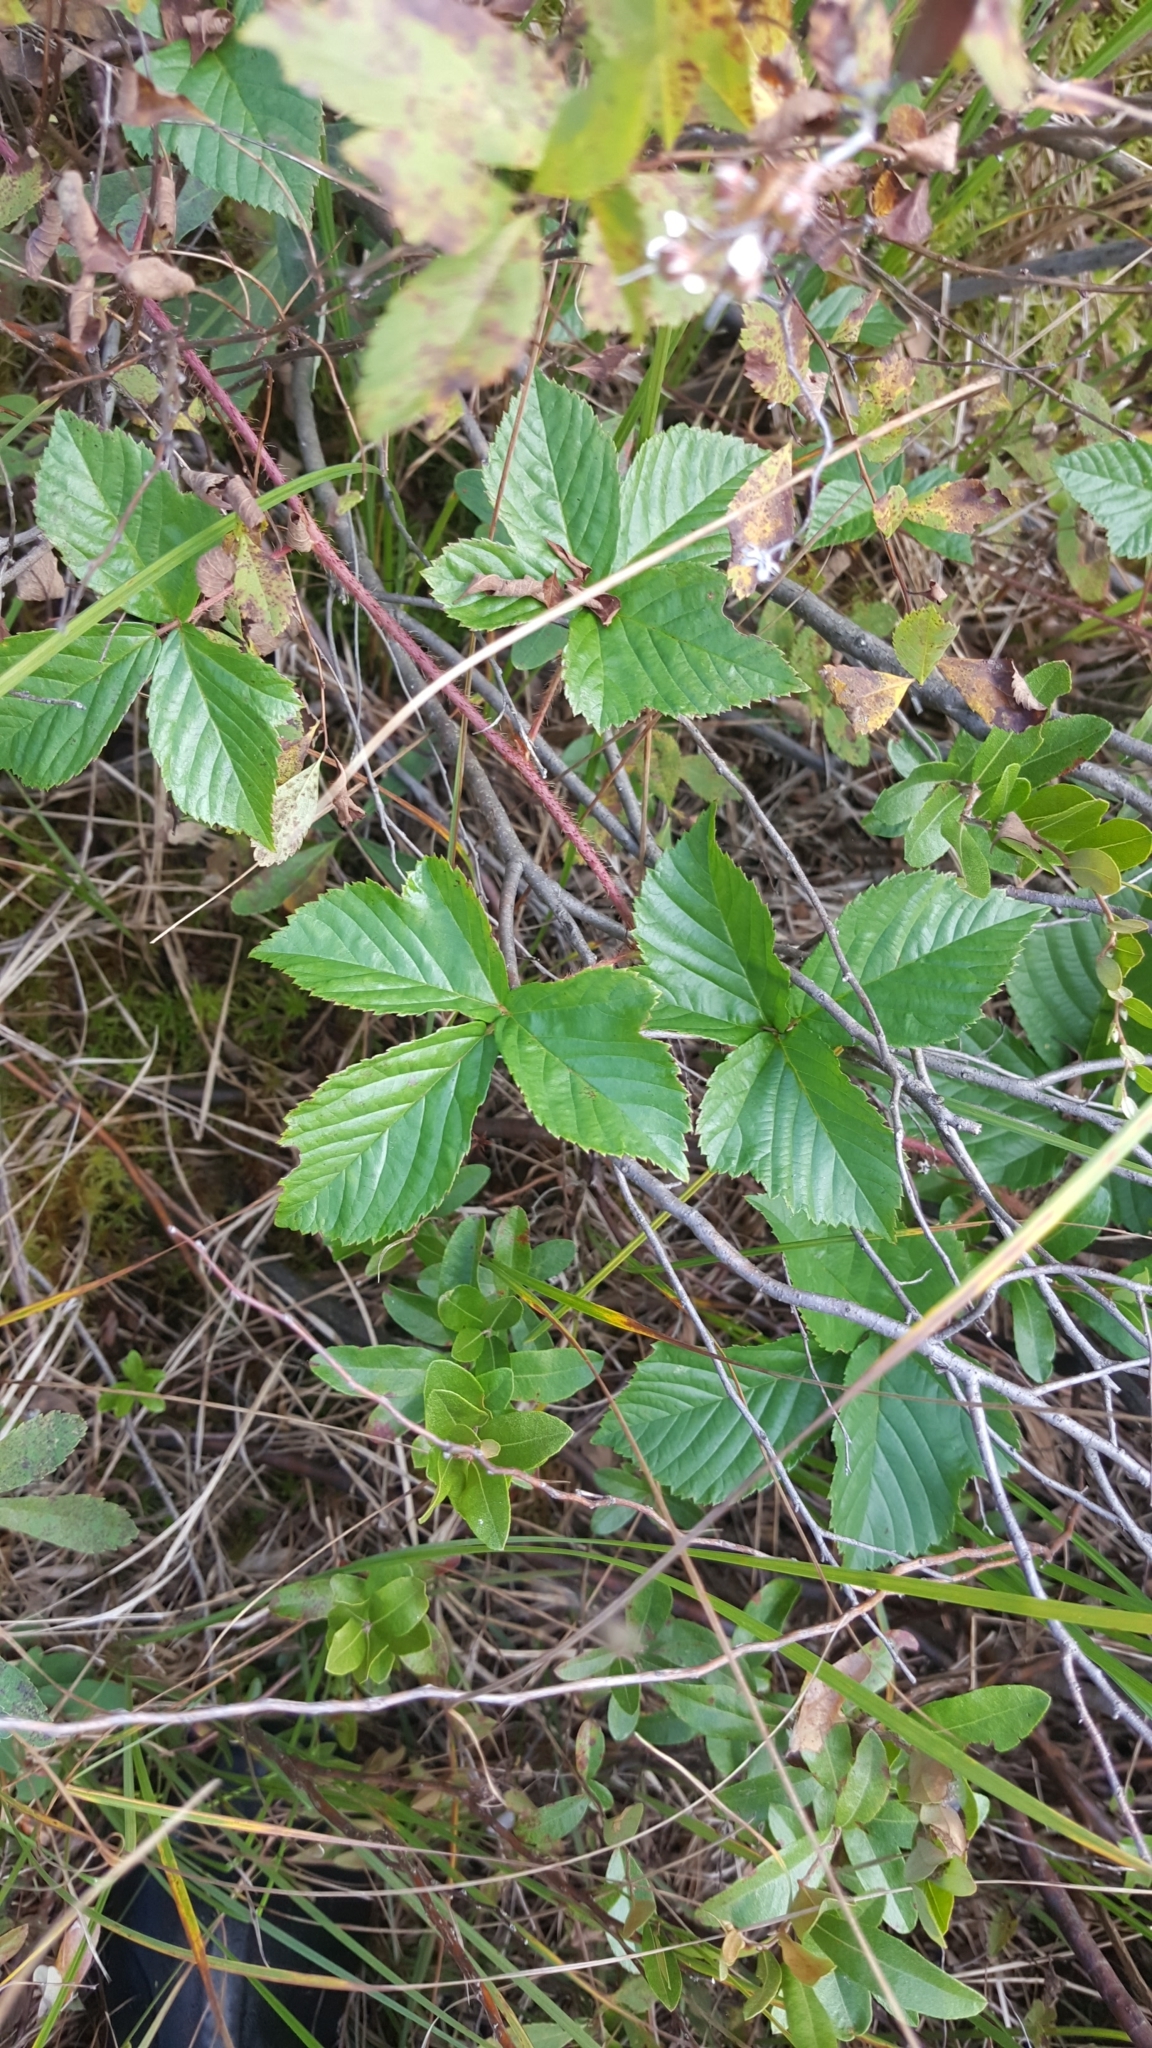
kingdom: Plantae
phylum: Tracheophyta
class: Magnoliopsida
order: Rosales
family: Rosaceae
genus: Rubus
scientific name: Rubus hispidus
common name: Running blackberry
